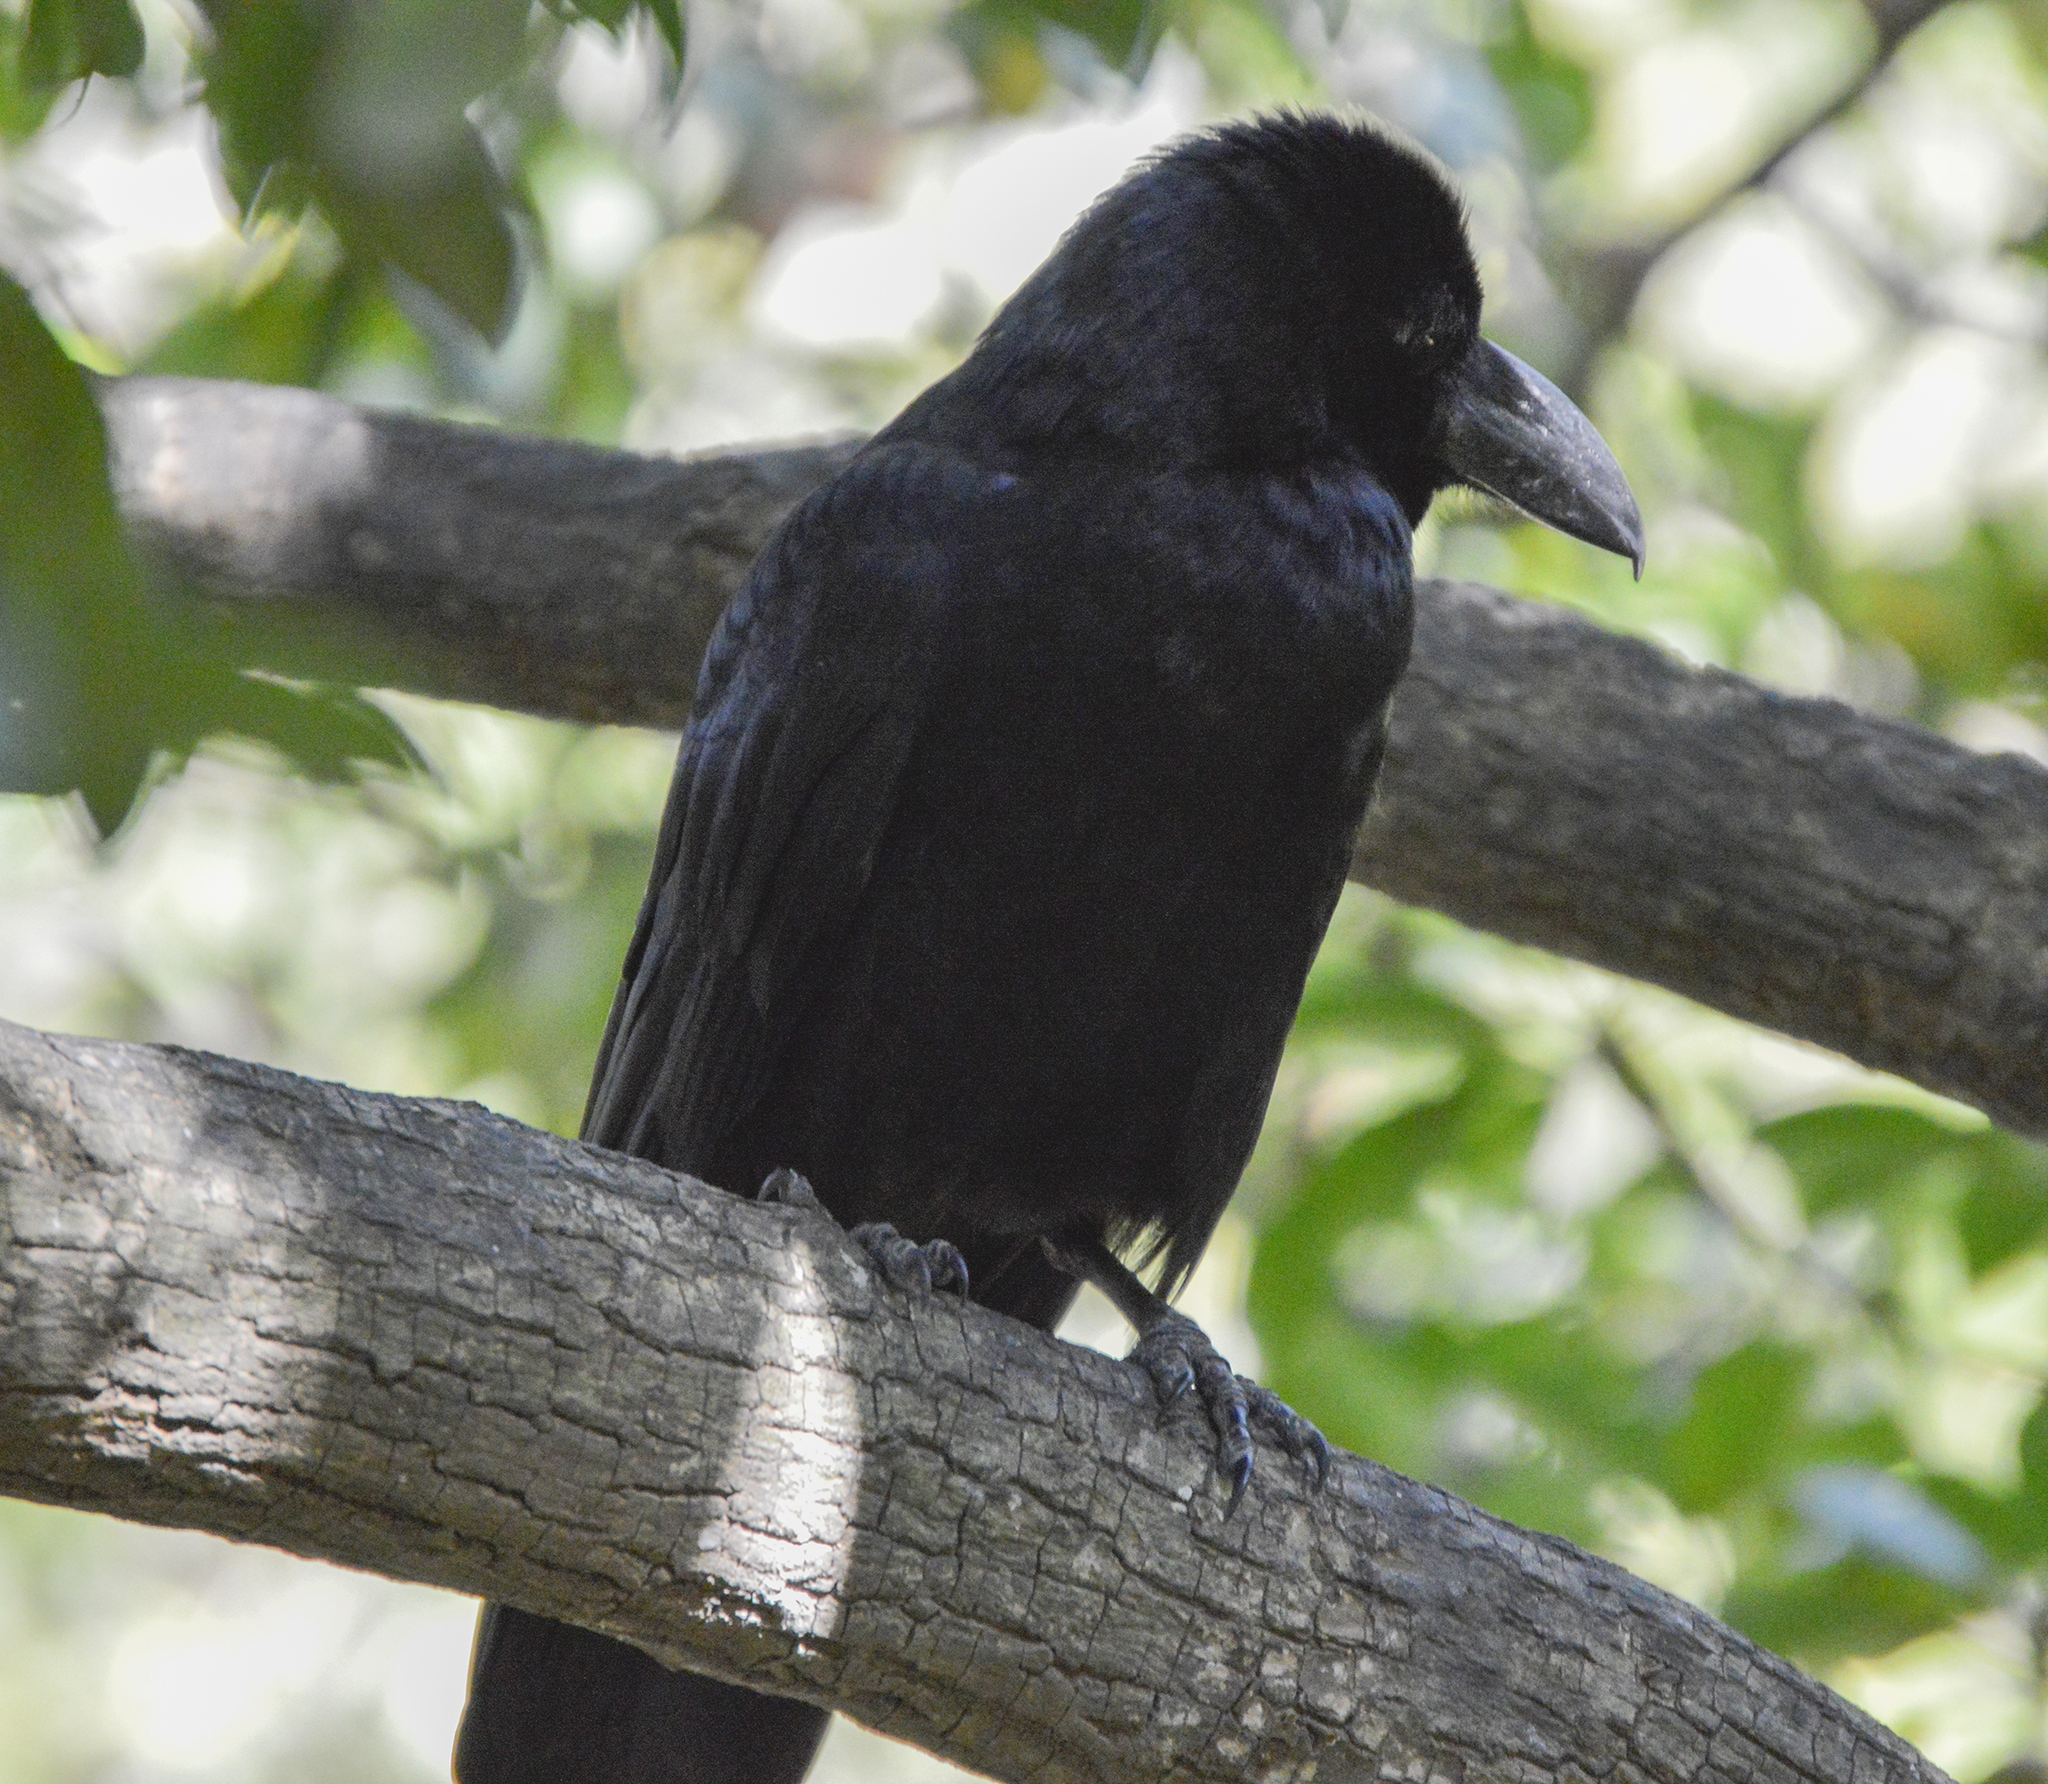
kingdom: Animalia
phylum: Chordata
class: Aves
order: Passeriformes
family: Corvidae
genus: Corvus
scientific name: Corvus macrorhynchos
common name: Large-billed crow
